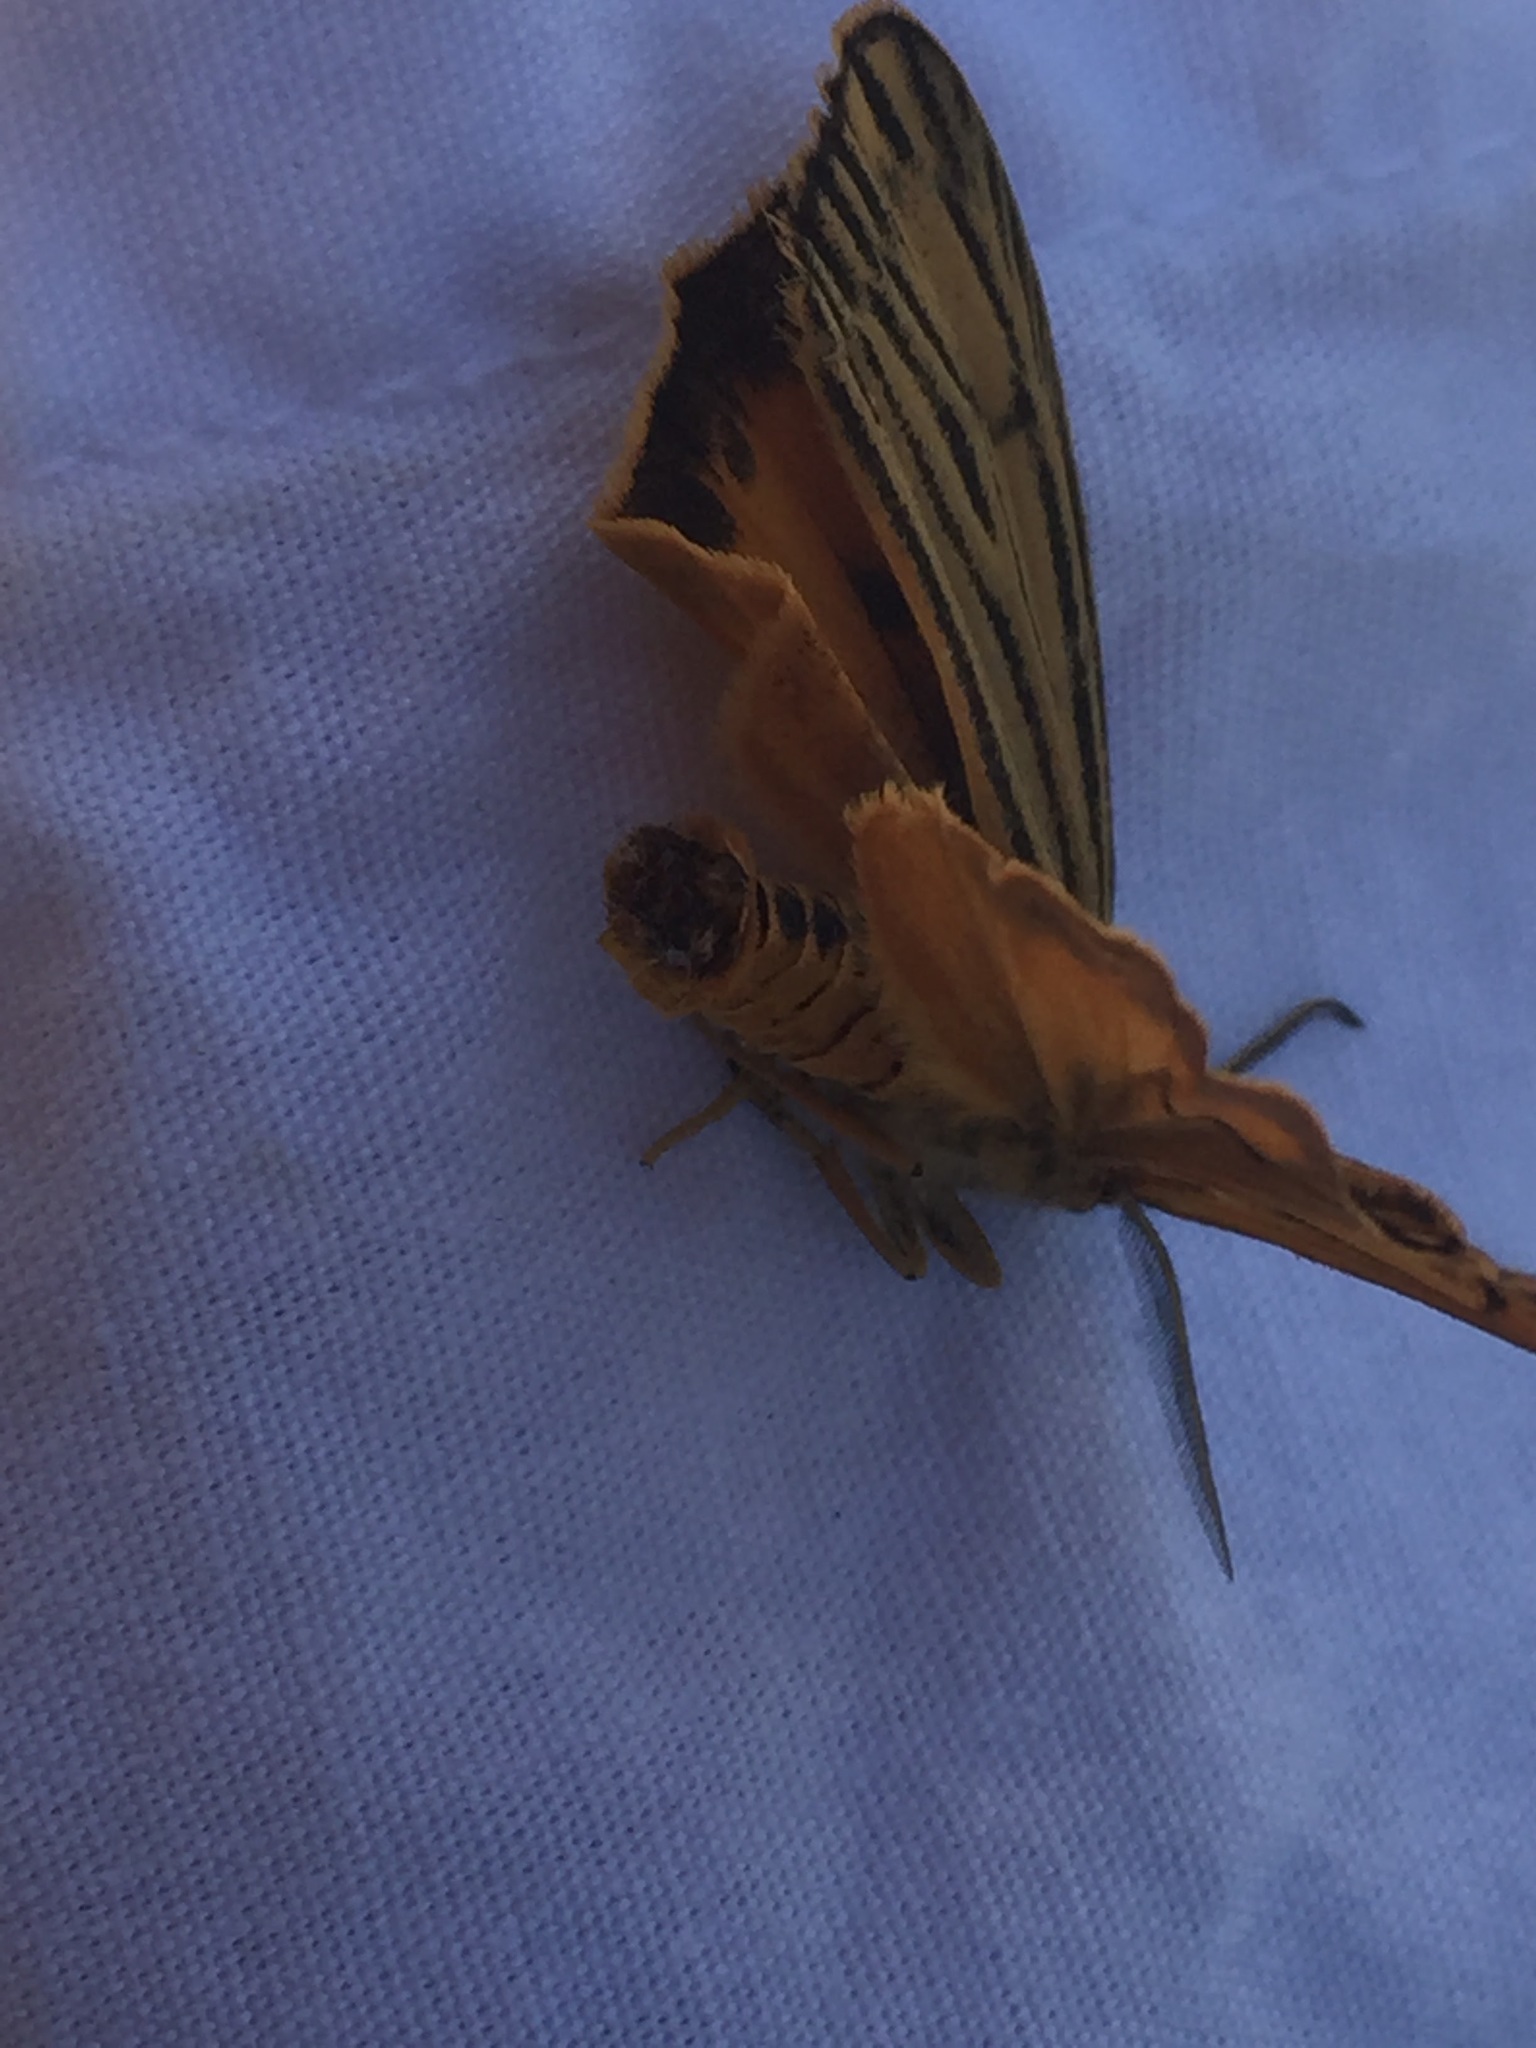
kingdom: Animalia
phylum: Arthropoda
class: Insecta
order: Lepidoptera
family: Erebidae
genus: Coscinia
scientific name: Coscinia Spiris striata
